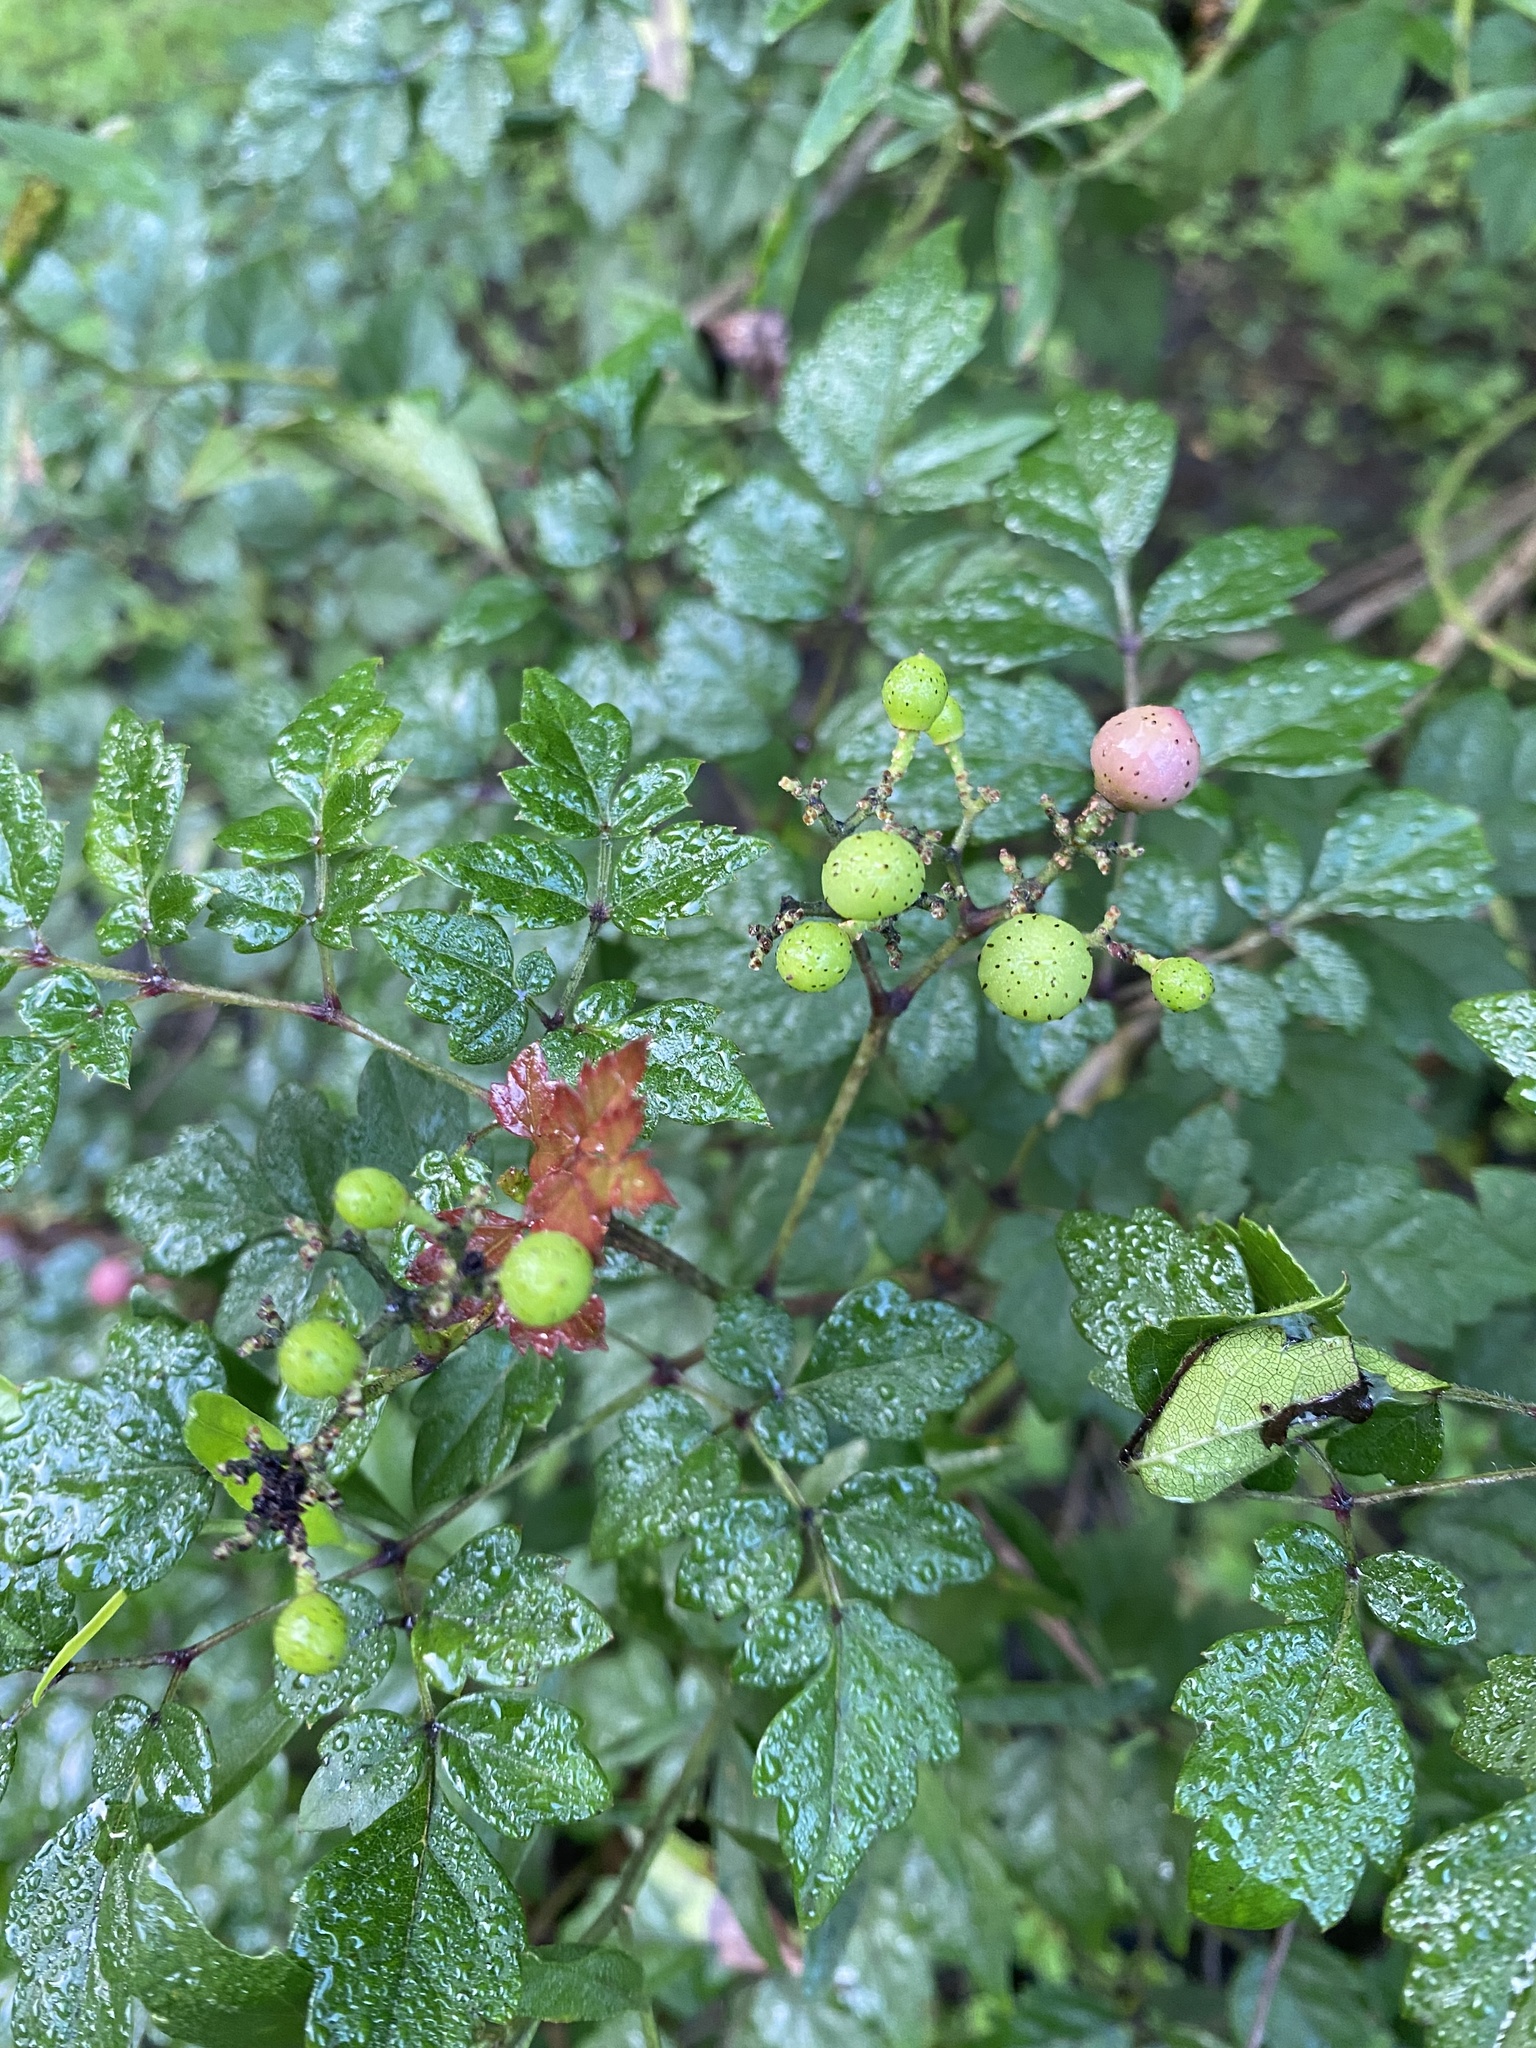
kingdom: Plantae
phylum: Tracheophyta
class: Magnoliopsida
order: Vitales
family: Vitaceae
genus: Nekemias
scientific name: Nekemias arborea
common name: Peppervine
